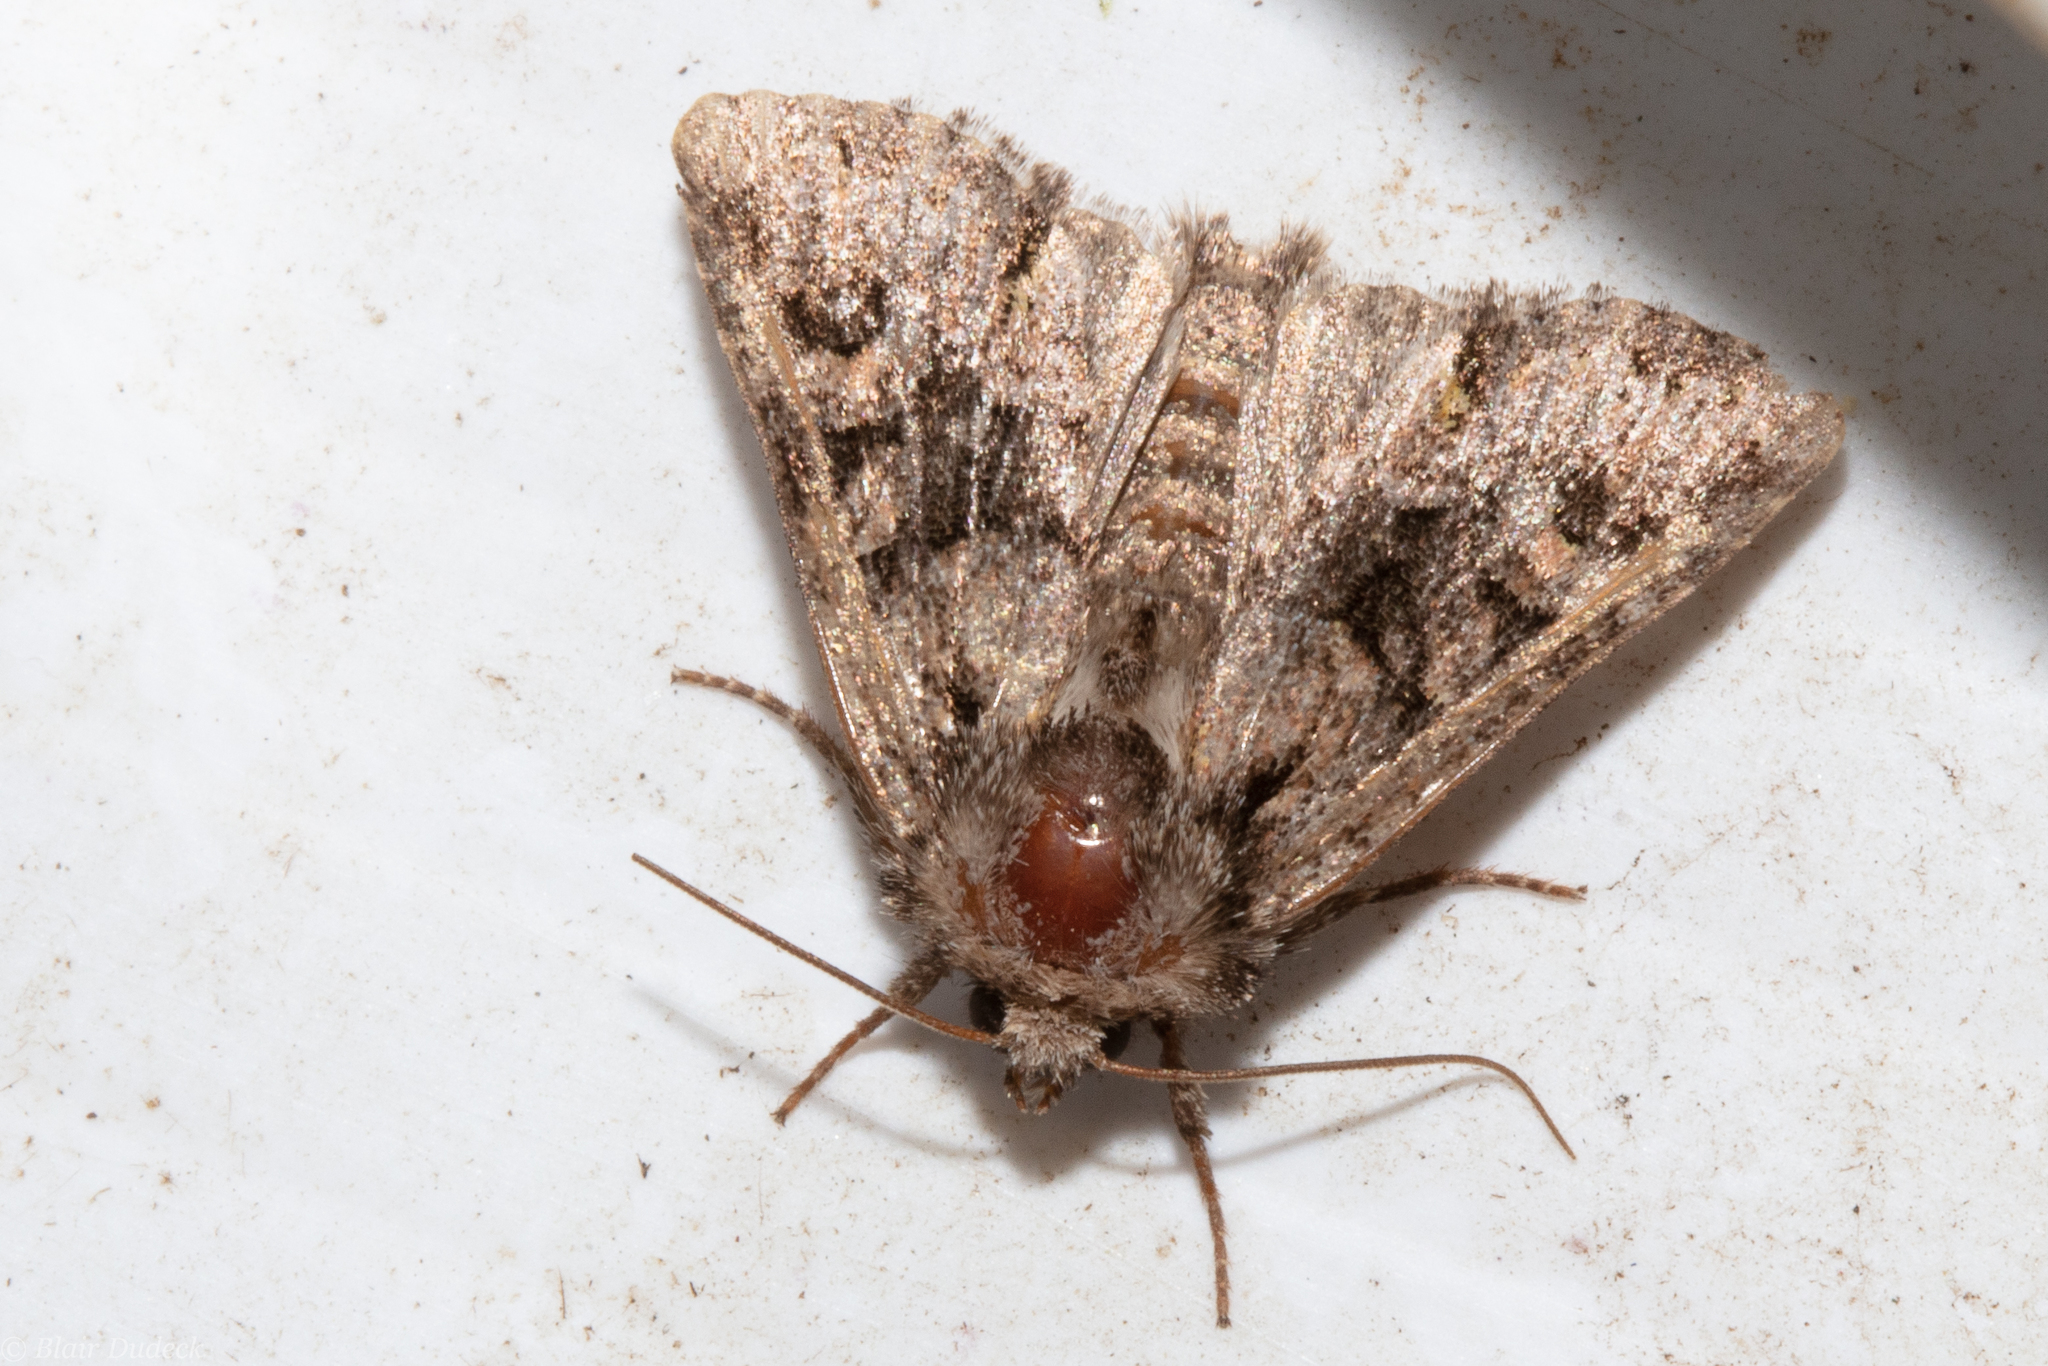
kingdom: Animalia
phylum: Arthropoda
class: Insecta
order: Lepidoptera
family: Noctuidae
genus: Apamea
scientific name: Apamea sordens
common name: Rustic shoulder-knot
